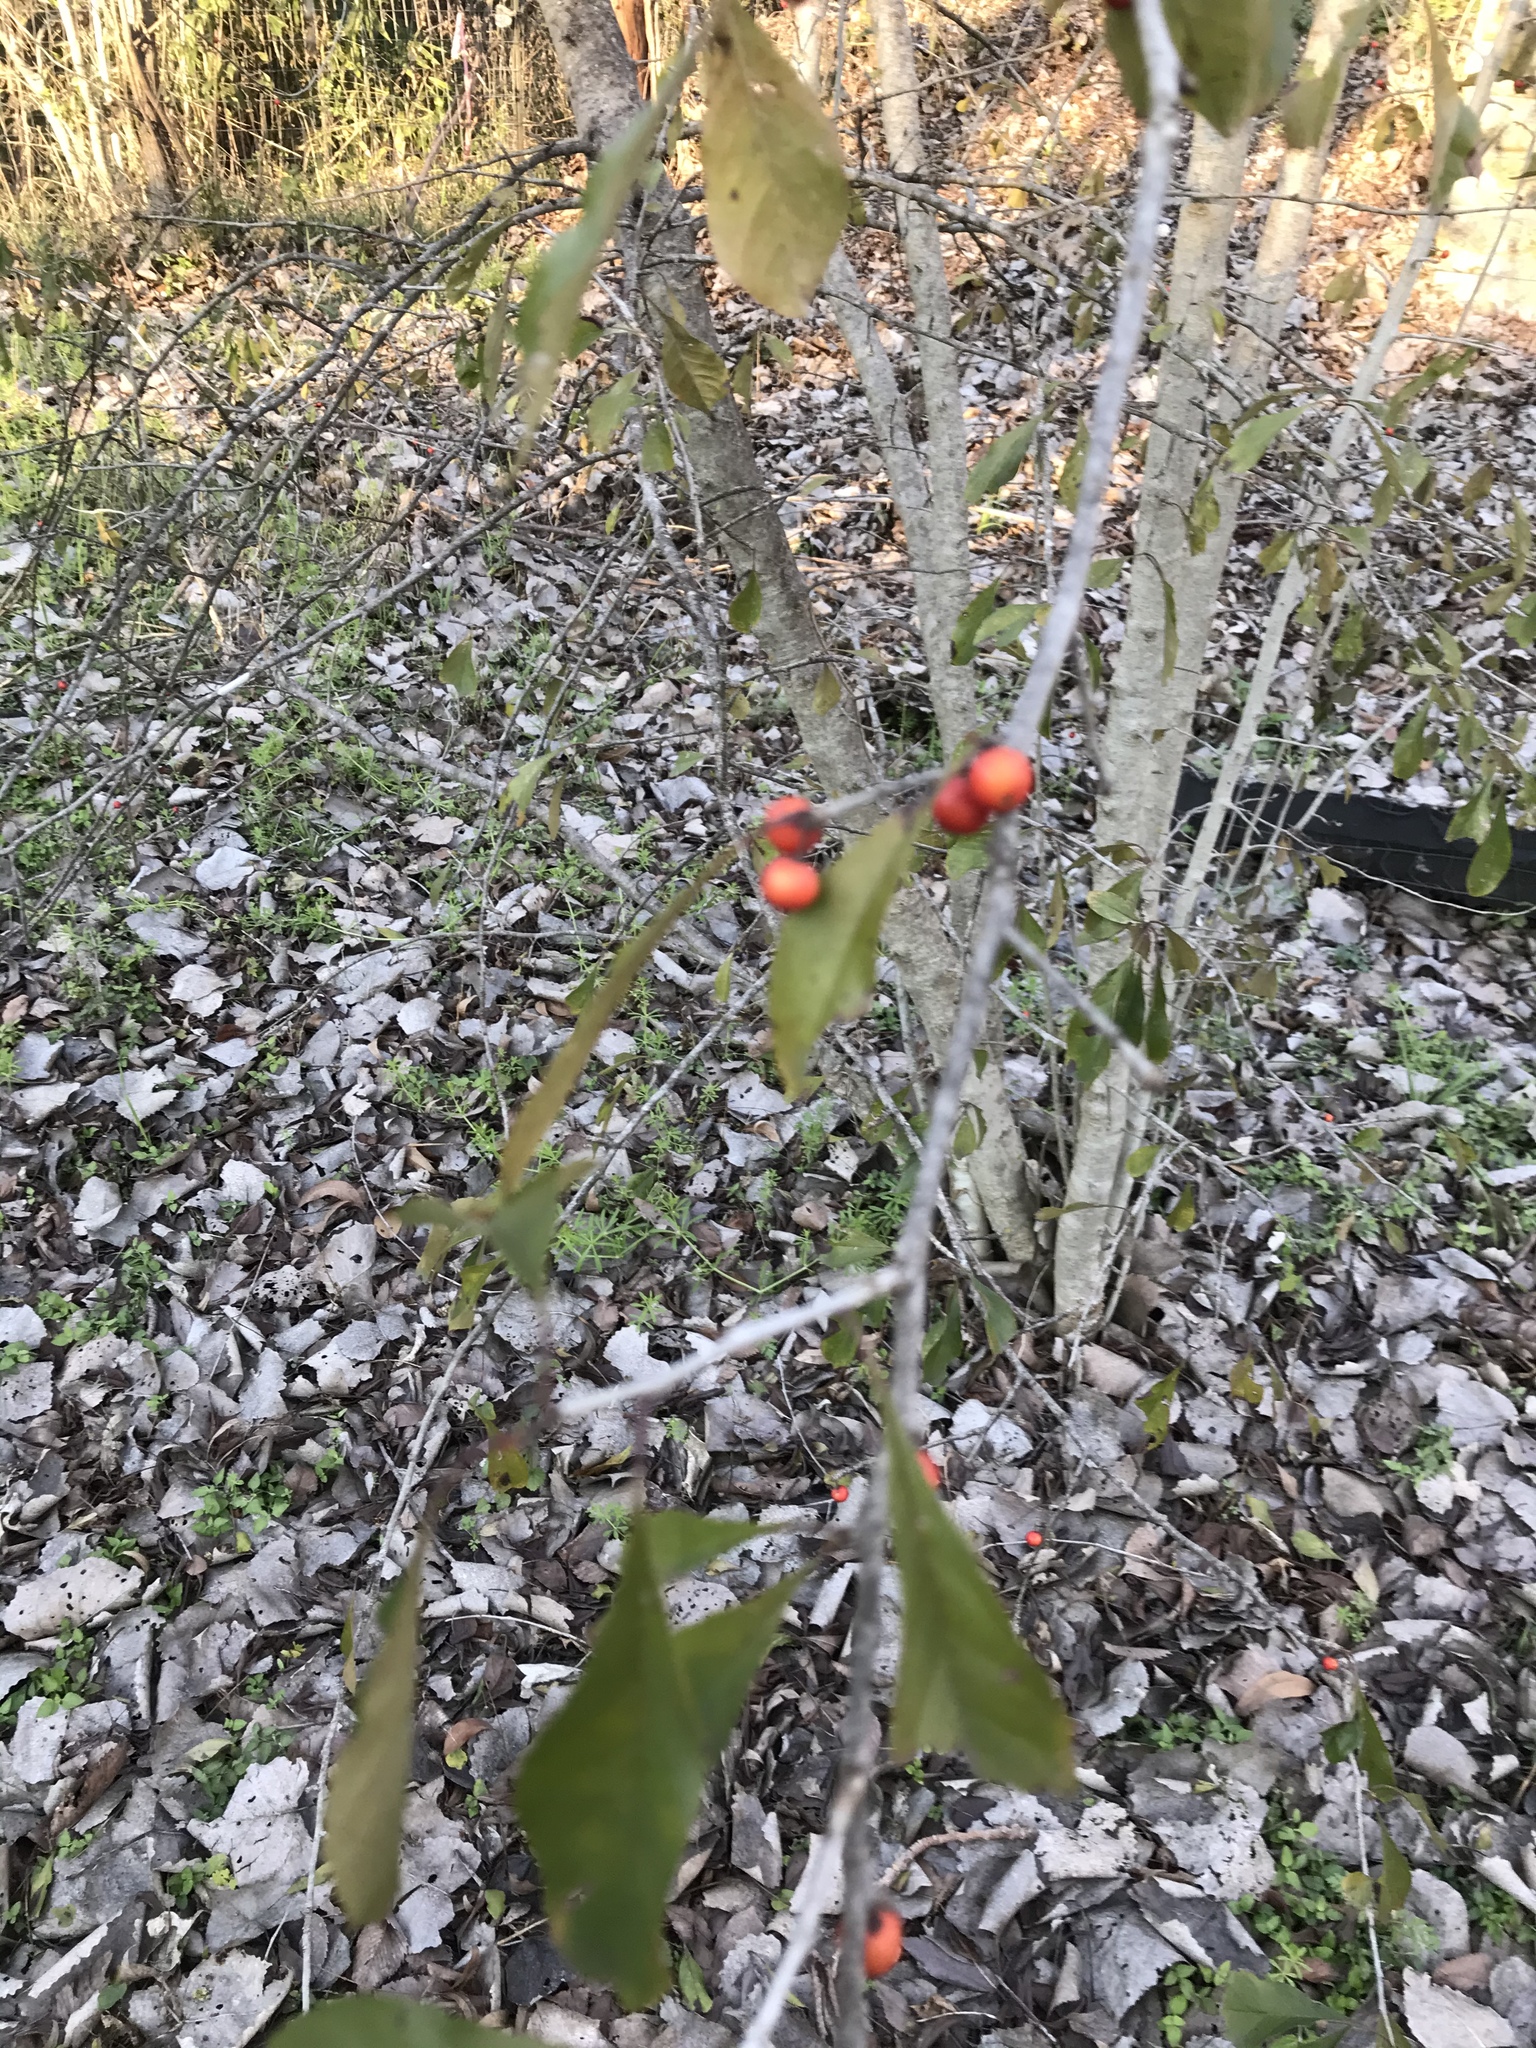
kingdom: Plantae
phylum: Tracheophyta
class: Magnoliopsida
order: Aquifoliales
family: Aquifoliaceae
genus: Ilex
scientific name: Ilex decidua
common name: Possum-haw
